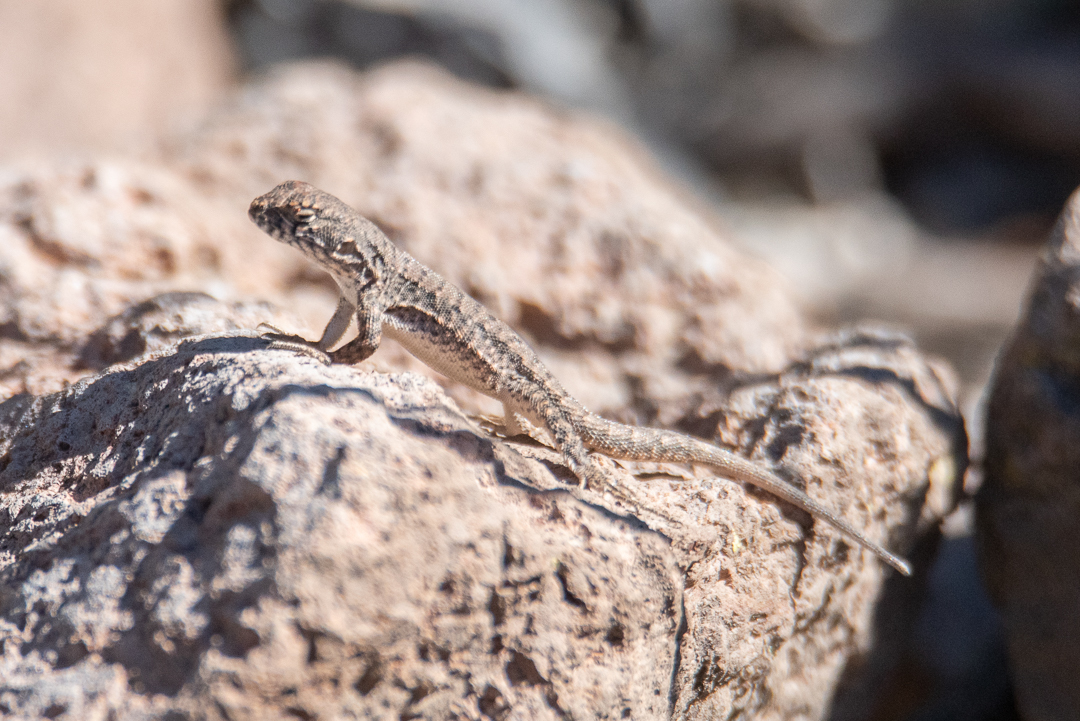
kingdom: Animalia
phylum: Chordata
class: Squamata
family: Liolaemidae
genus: Liolaemus
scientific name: Liolaemus monticola
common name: Peak tree iguana
